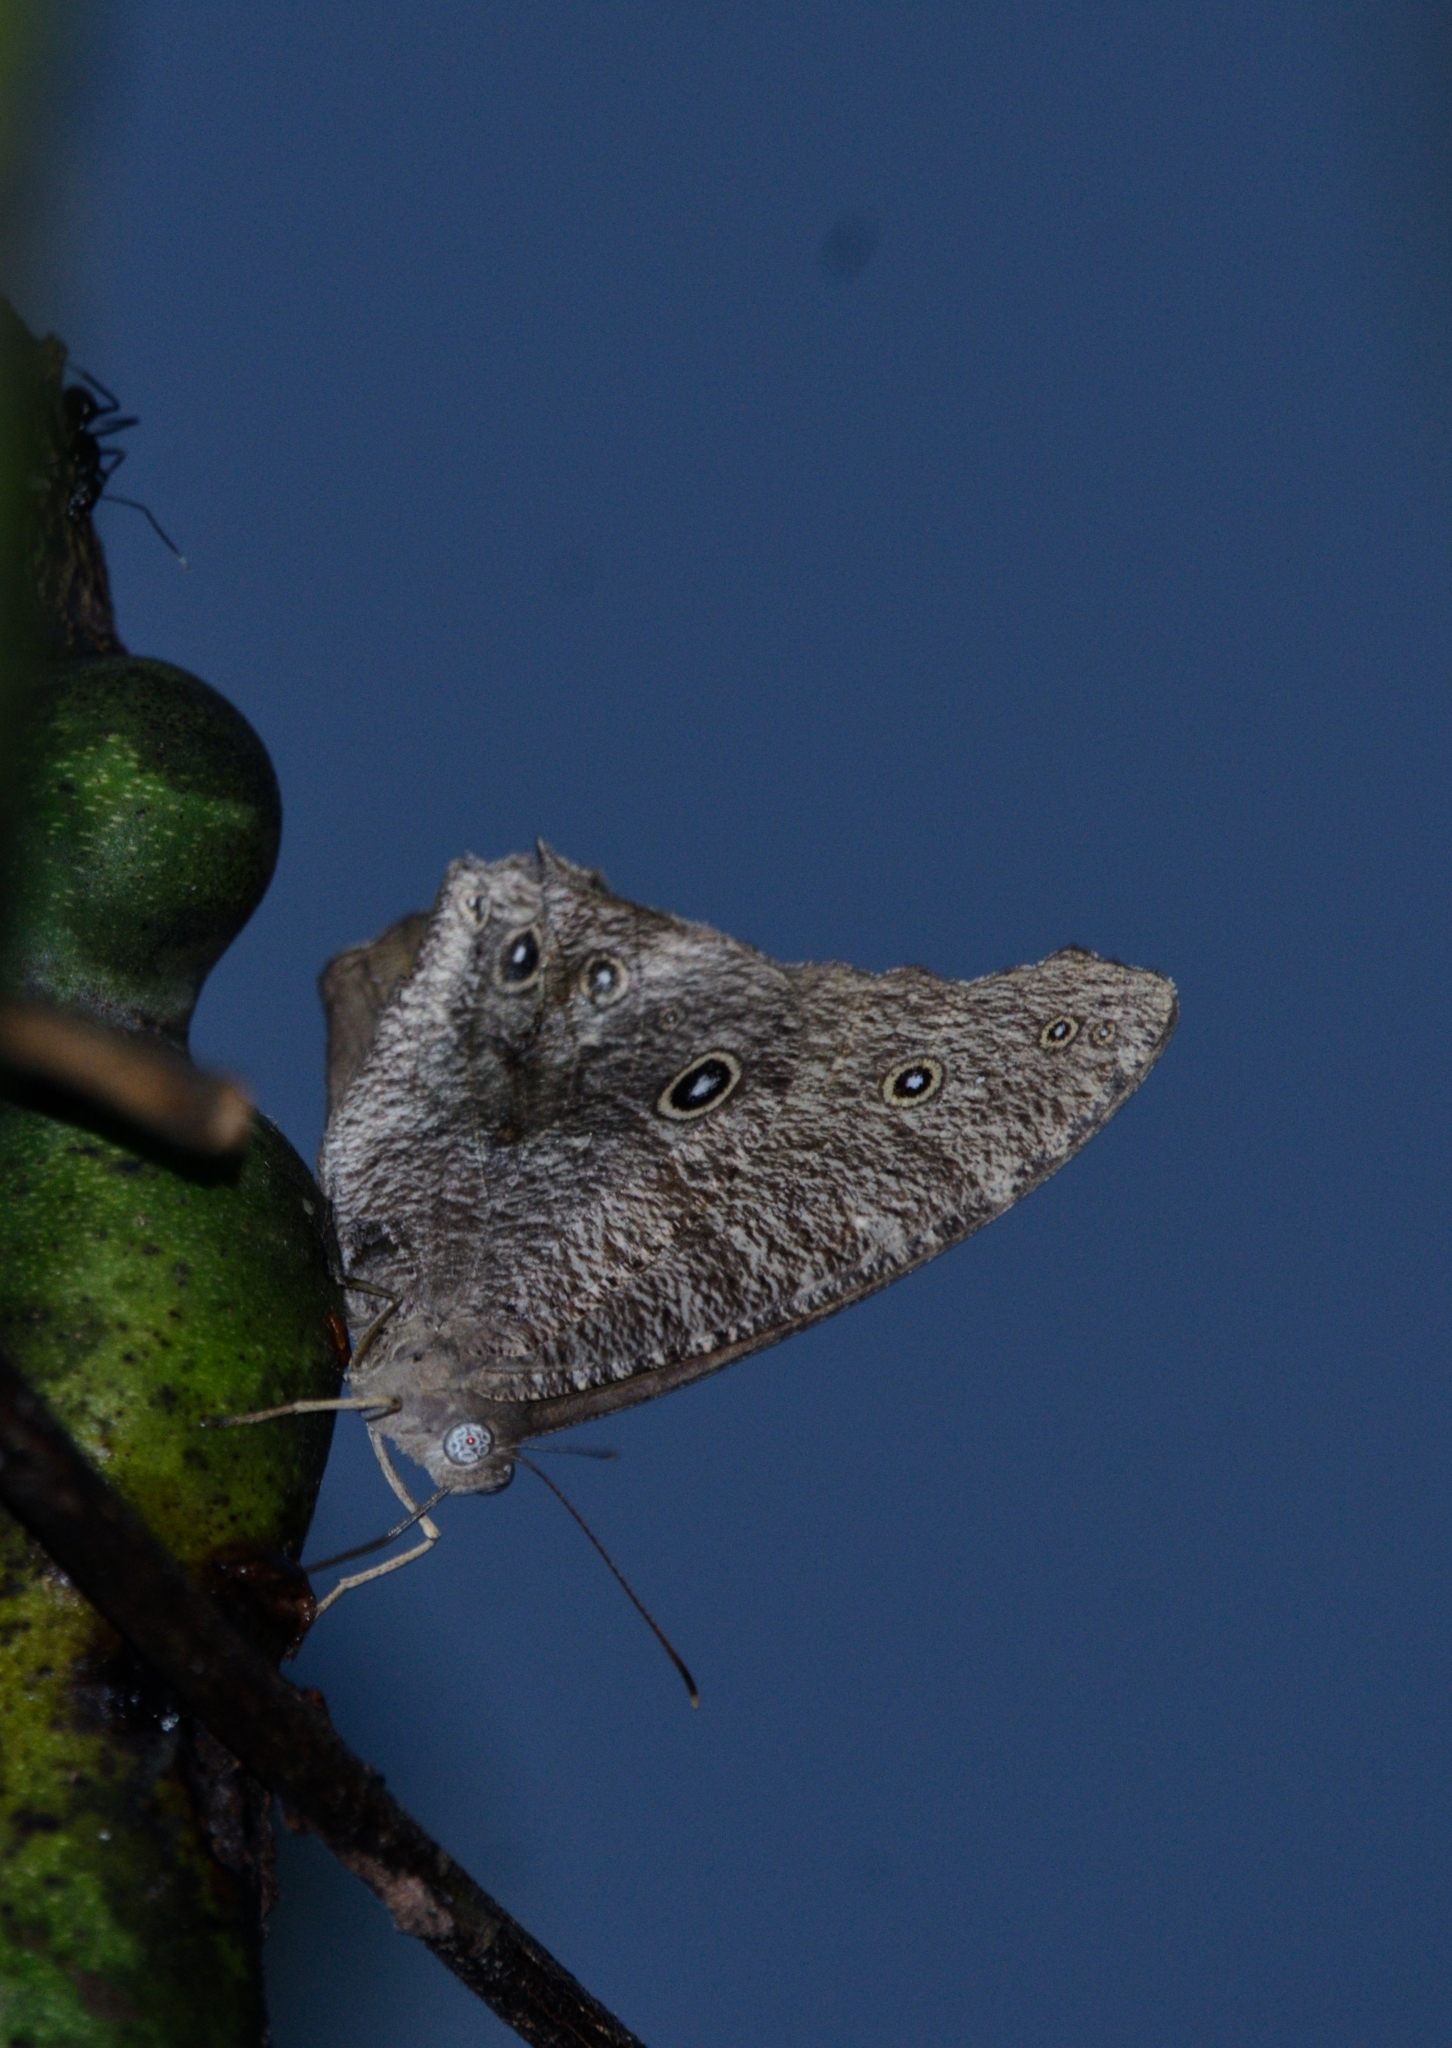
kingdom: Animalia
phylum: Arthropoda
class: Insecta
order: Lepidoptera
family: Nymphalidae
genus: Melanitis
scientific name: Melanitis leda
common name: Twilight brown
